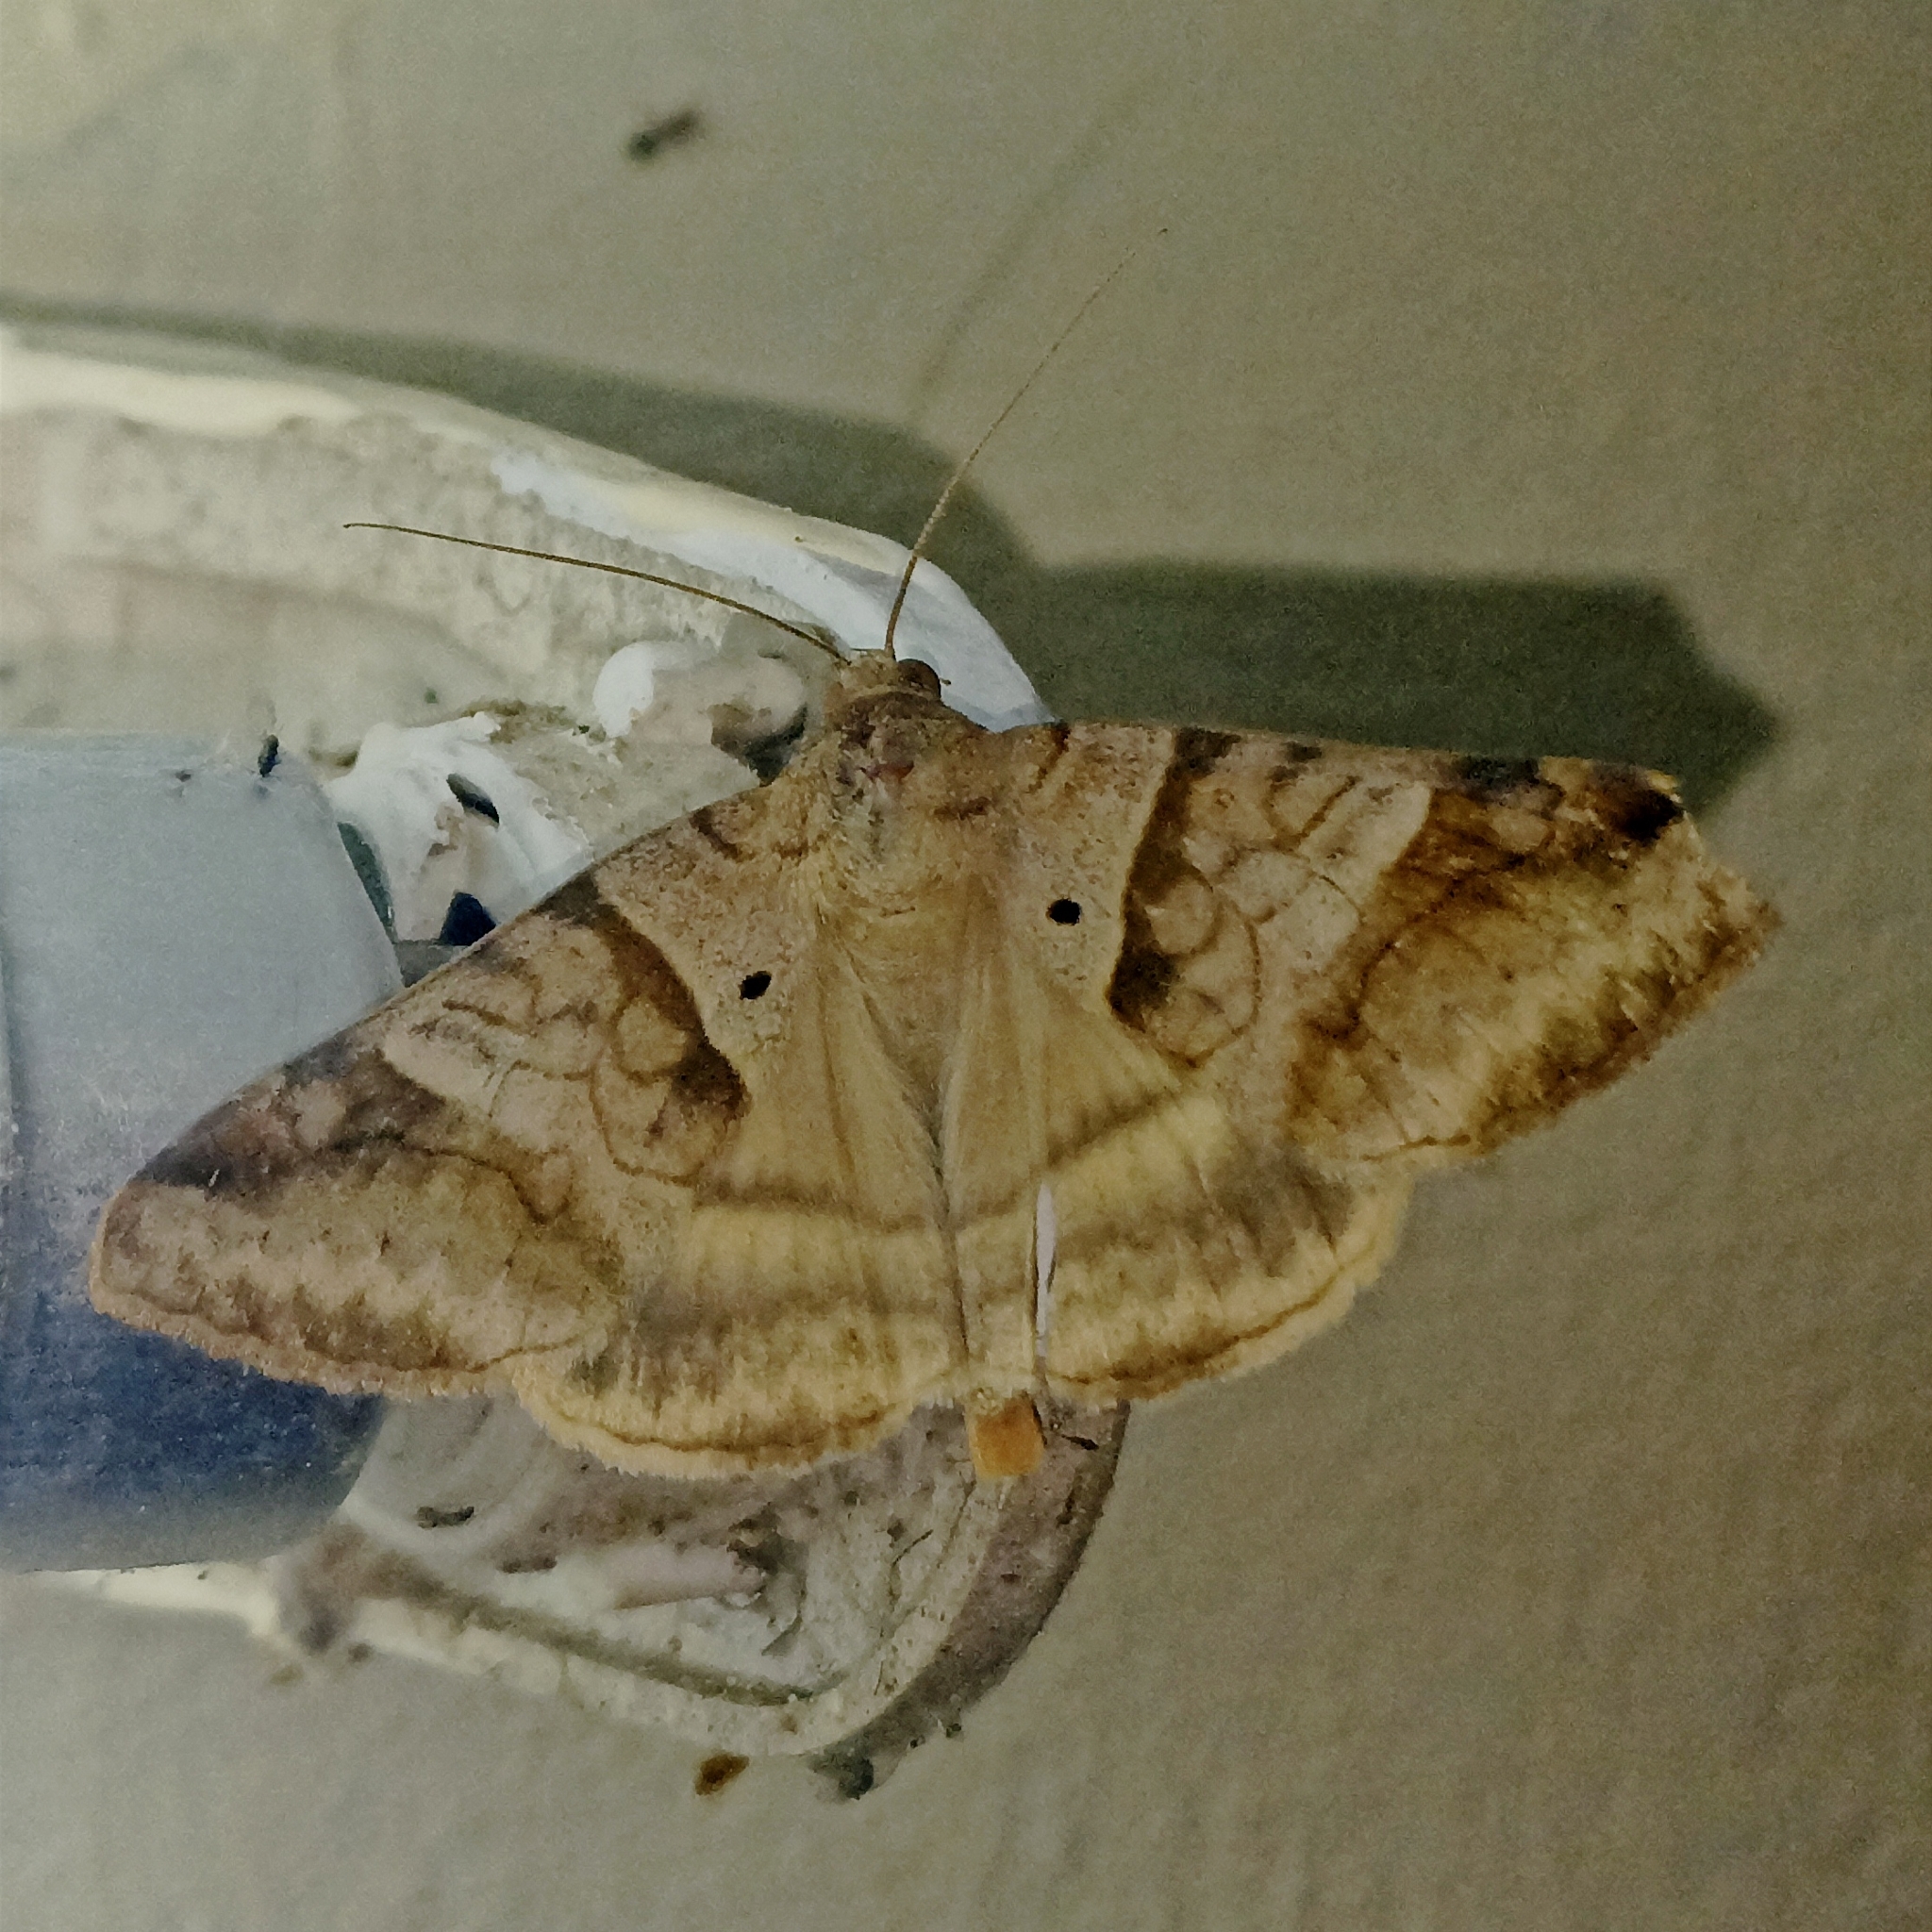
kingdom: Animalia
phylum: Arthropoda
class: Insecta
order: Lepidoptera
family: Erebidae
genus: Mocis
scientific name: Mocis undata
